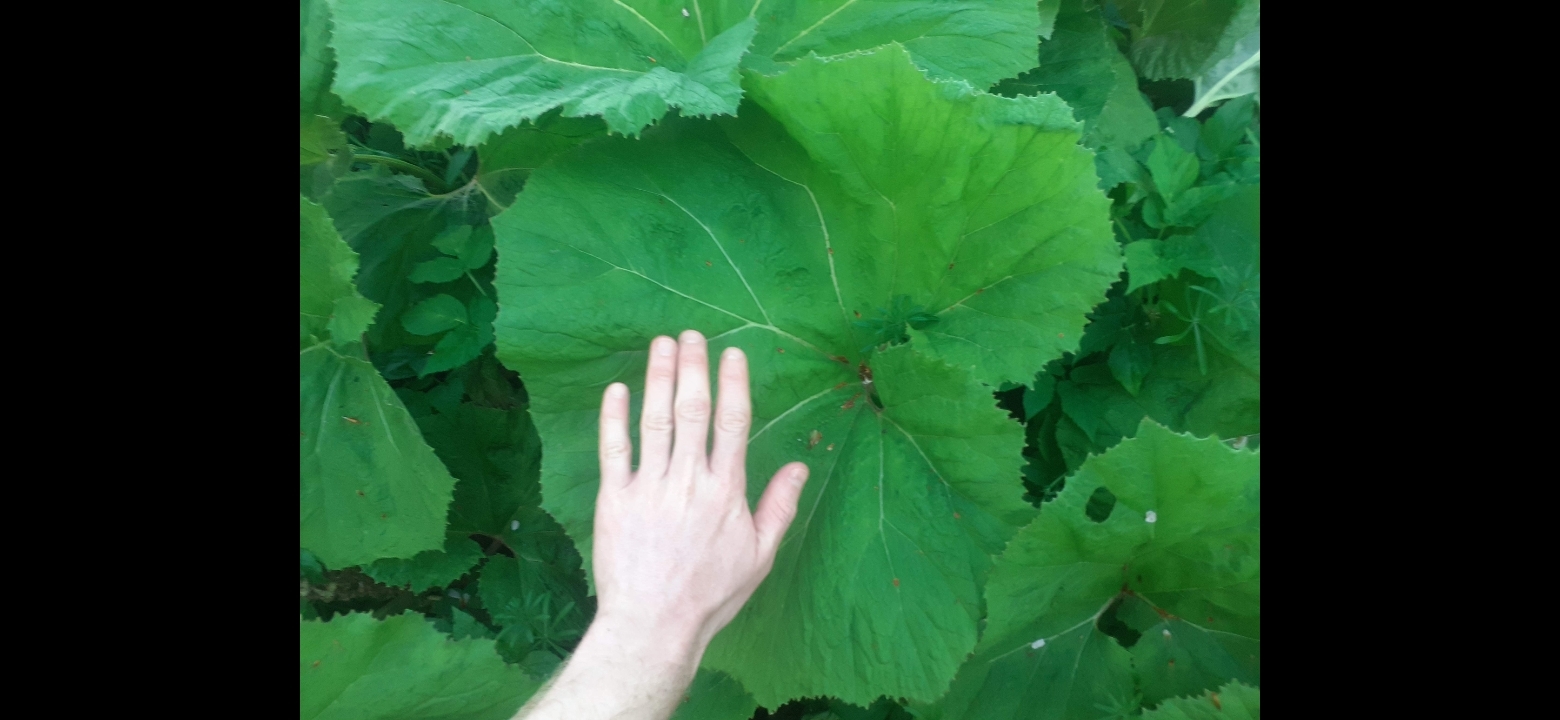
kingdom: Plantae
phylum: Tracheophyta
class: Magnoliopsida
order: Asterales
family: Asteraceae
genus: Petasites
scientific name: Petasites hybridus
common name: Butterbur
